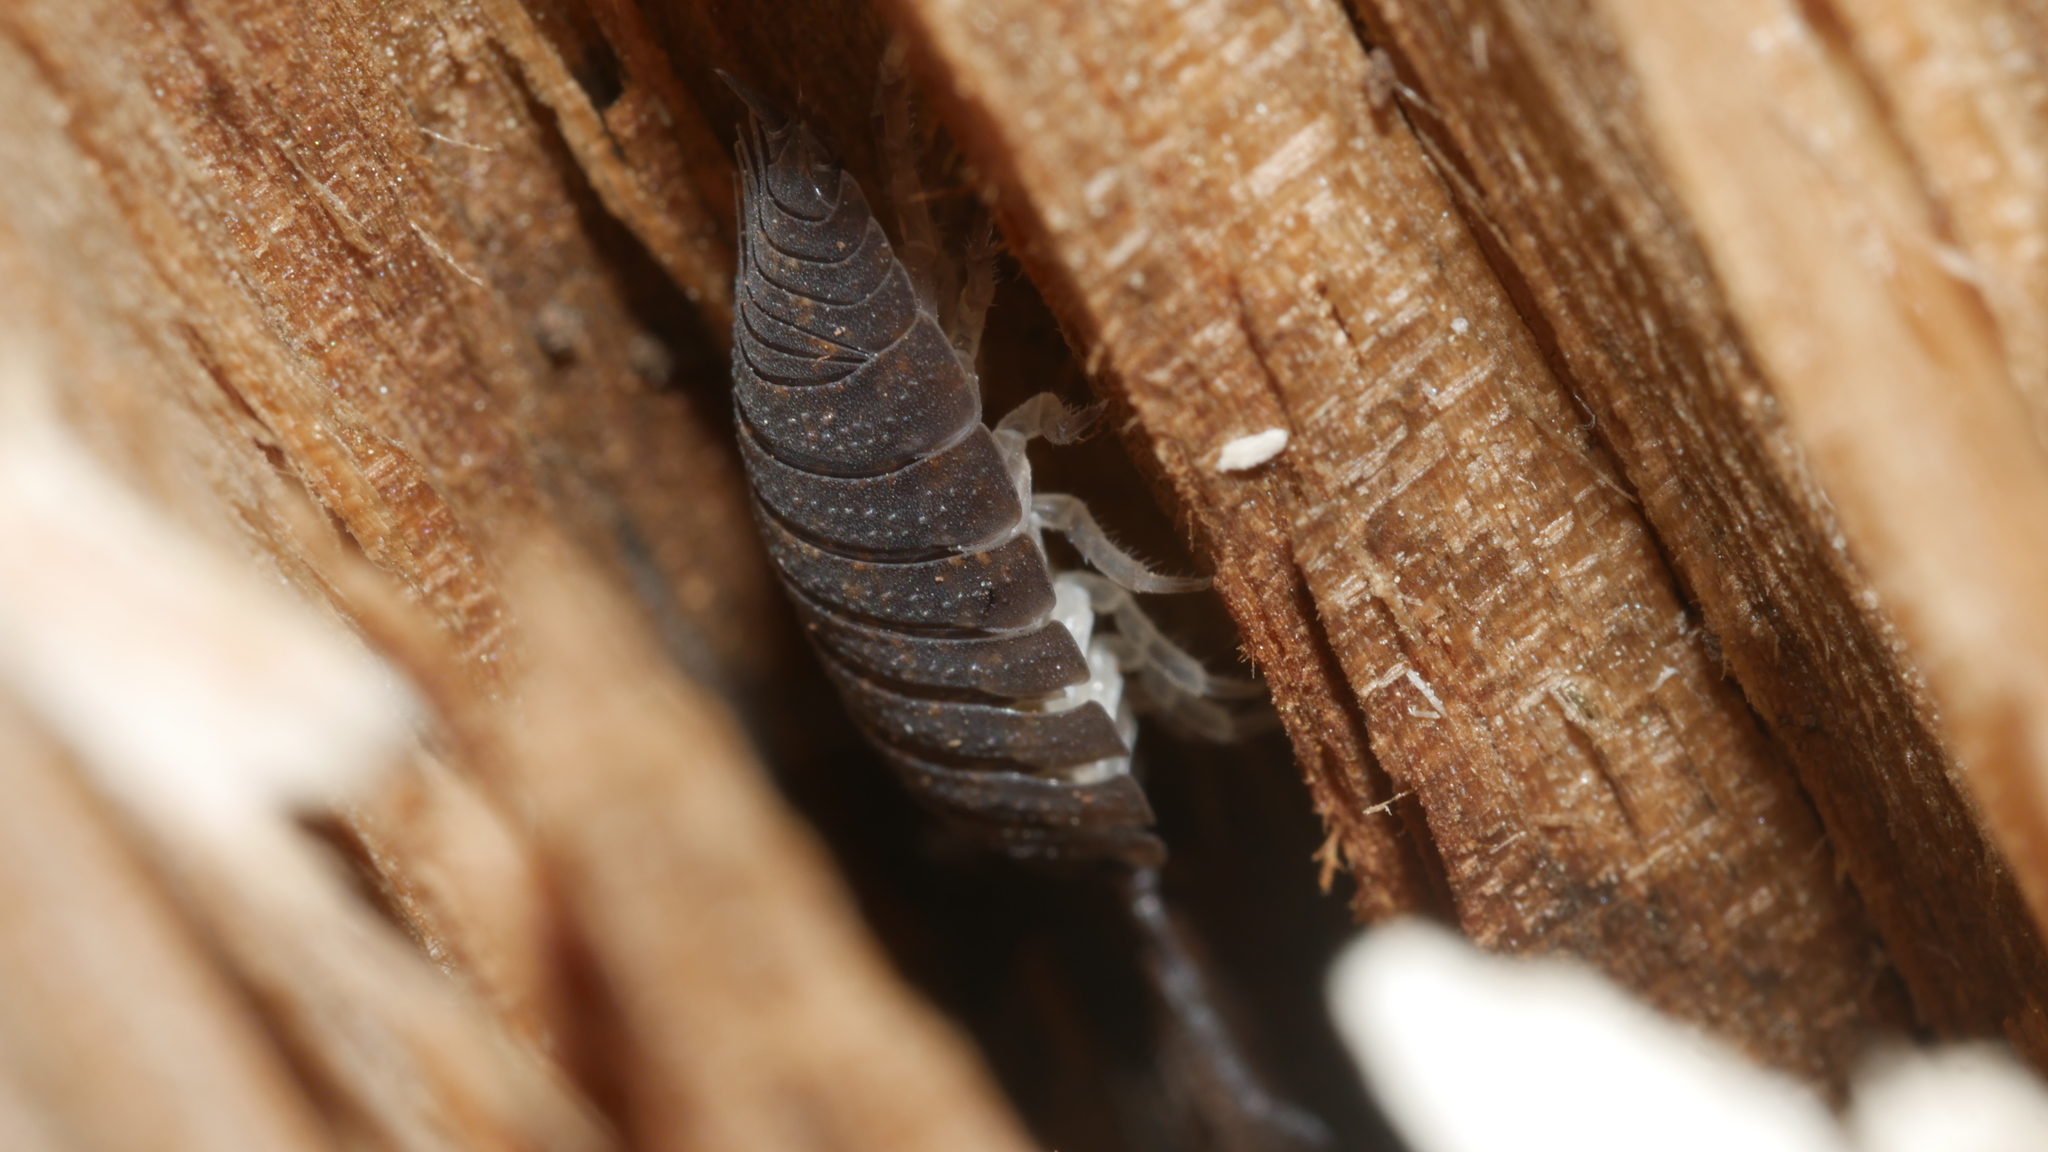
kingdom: Animalia
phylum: Arthropoda
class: Malacostraca
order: Isopoda
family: Porcellionidae
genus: Porcellio
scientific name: Porcellio scaber
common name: Common rough woodlouse
